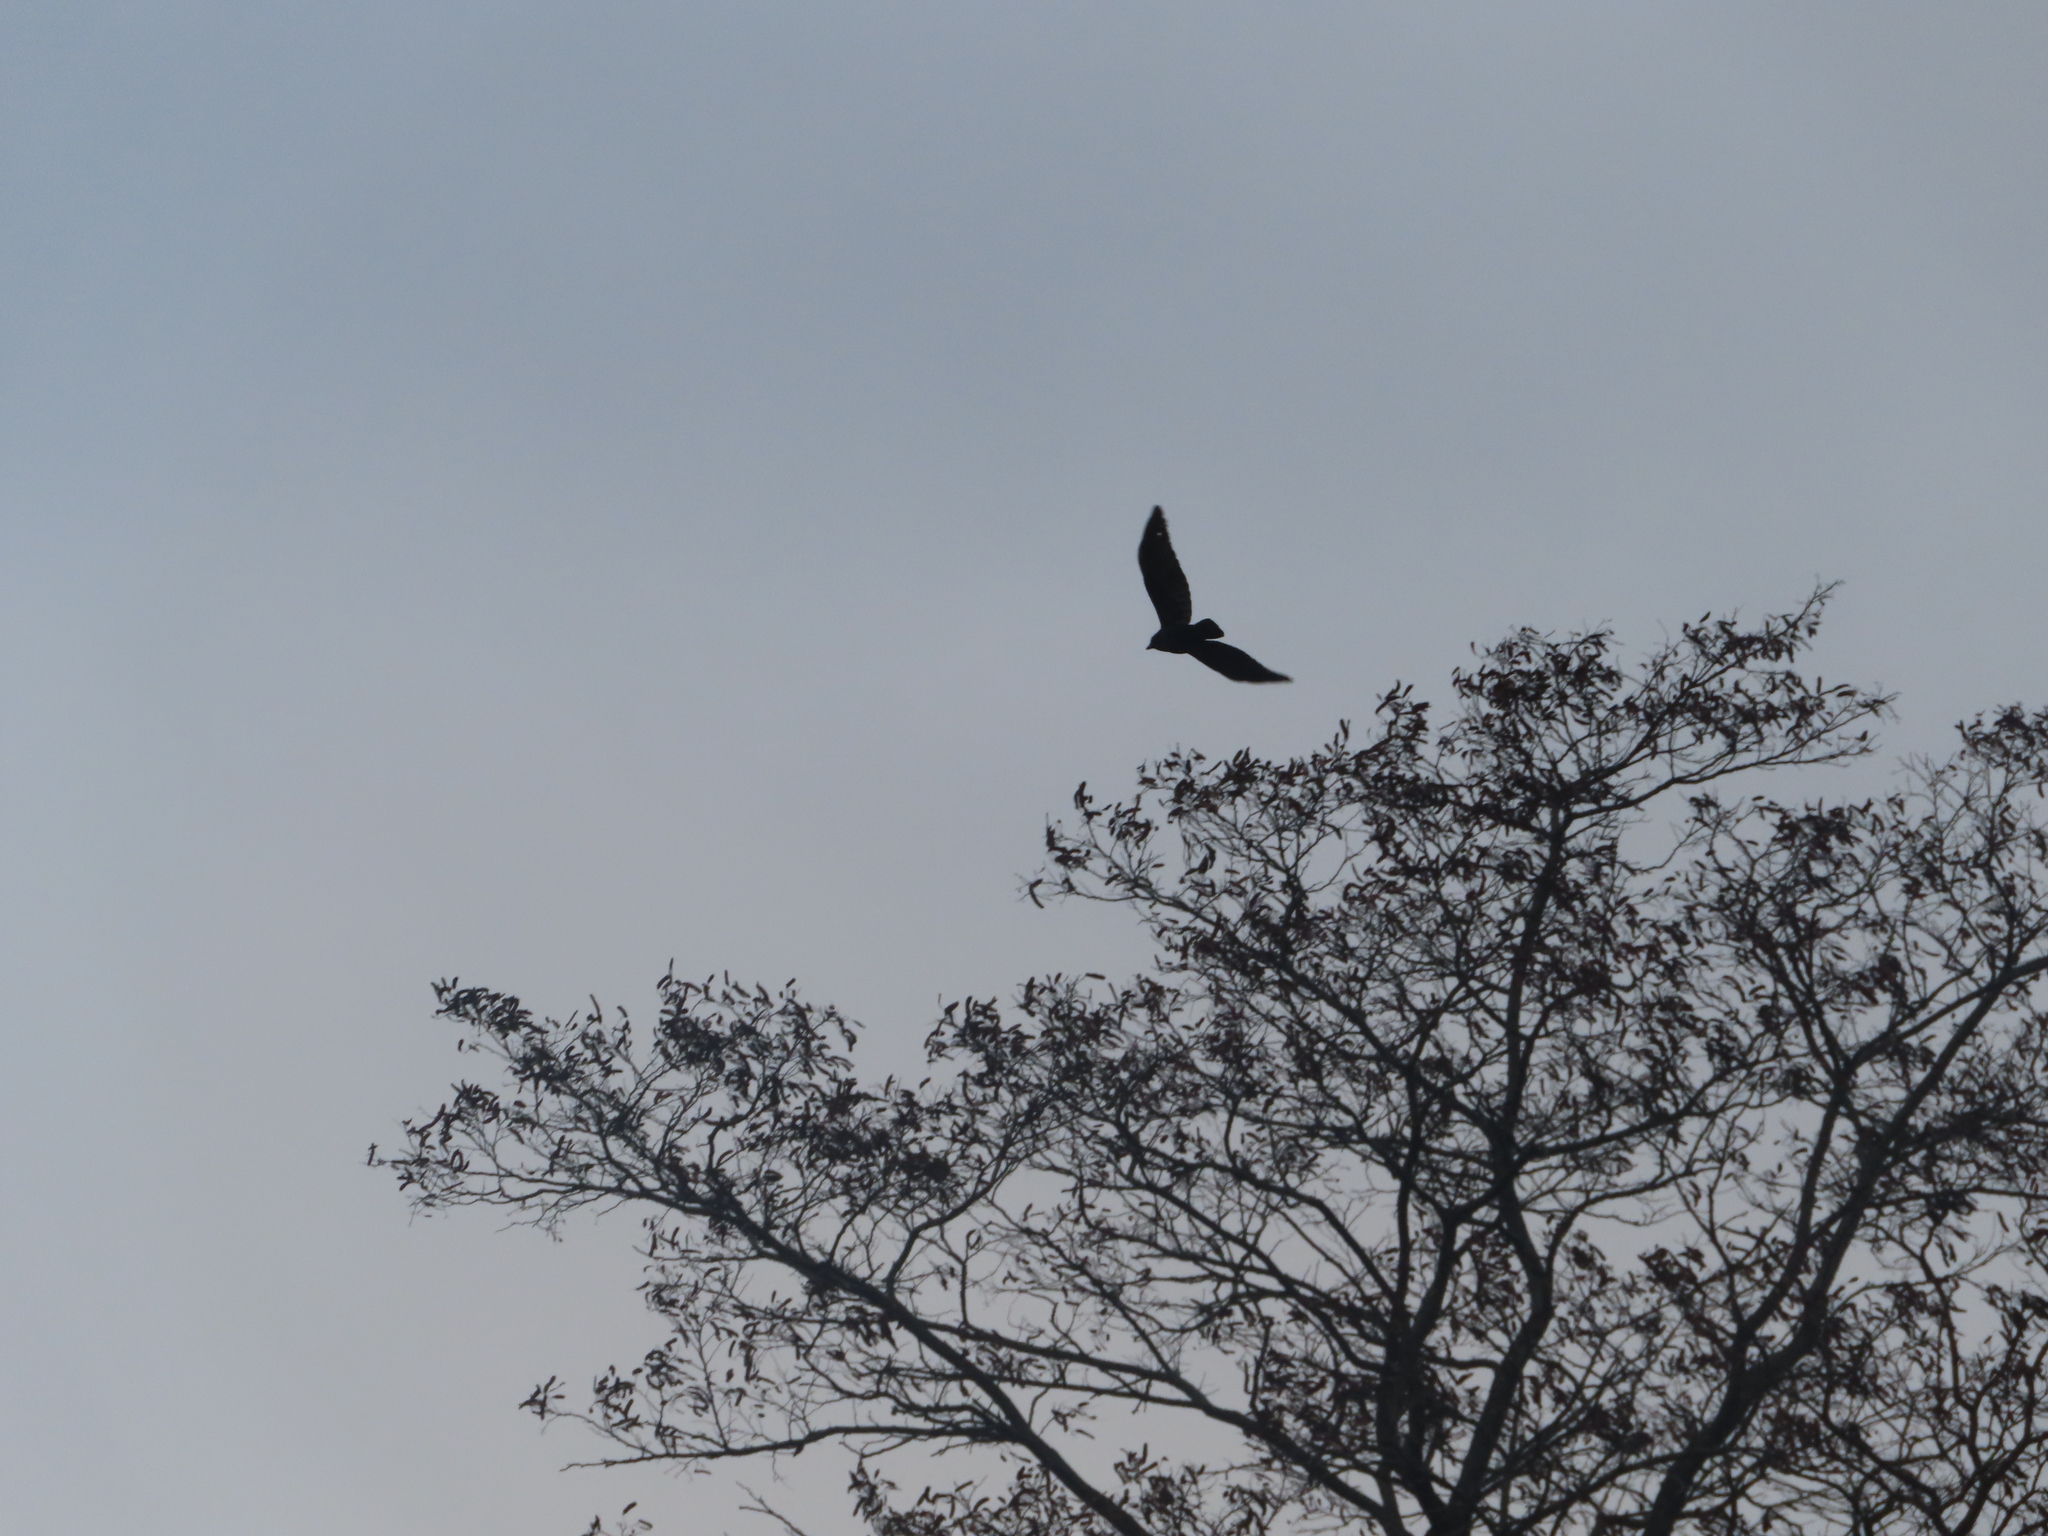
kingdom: Animalia
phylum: Chordata
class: Aves
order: Passeriformes
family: Corvidae
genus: Corvus
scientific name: Corvus brachyrhynchos
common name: American crow
